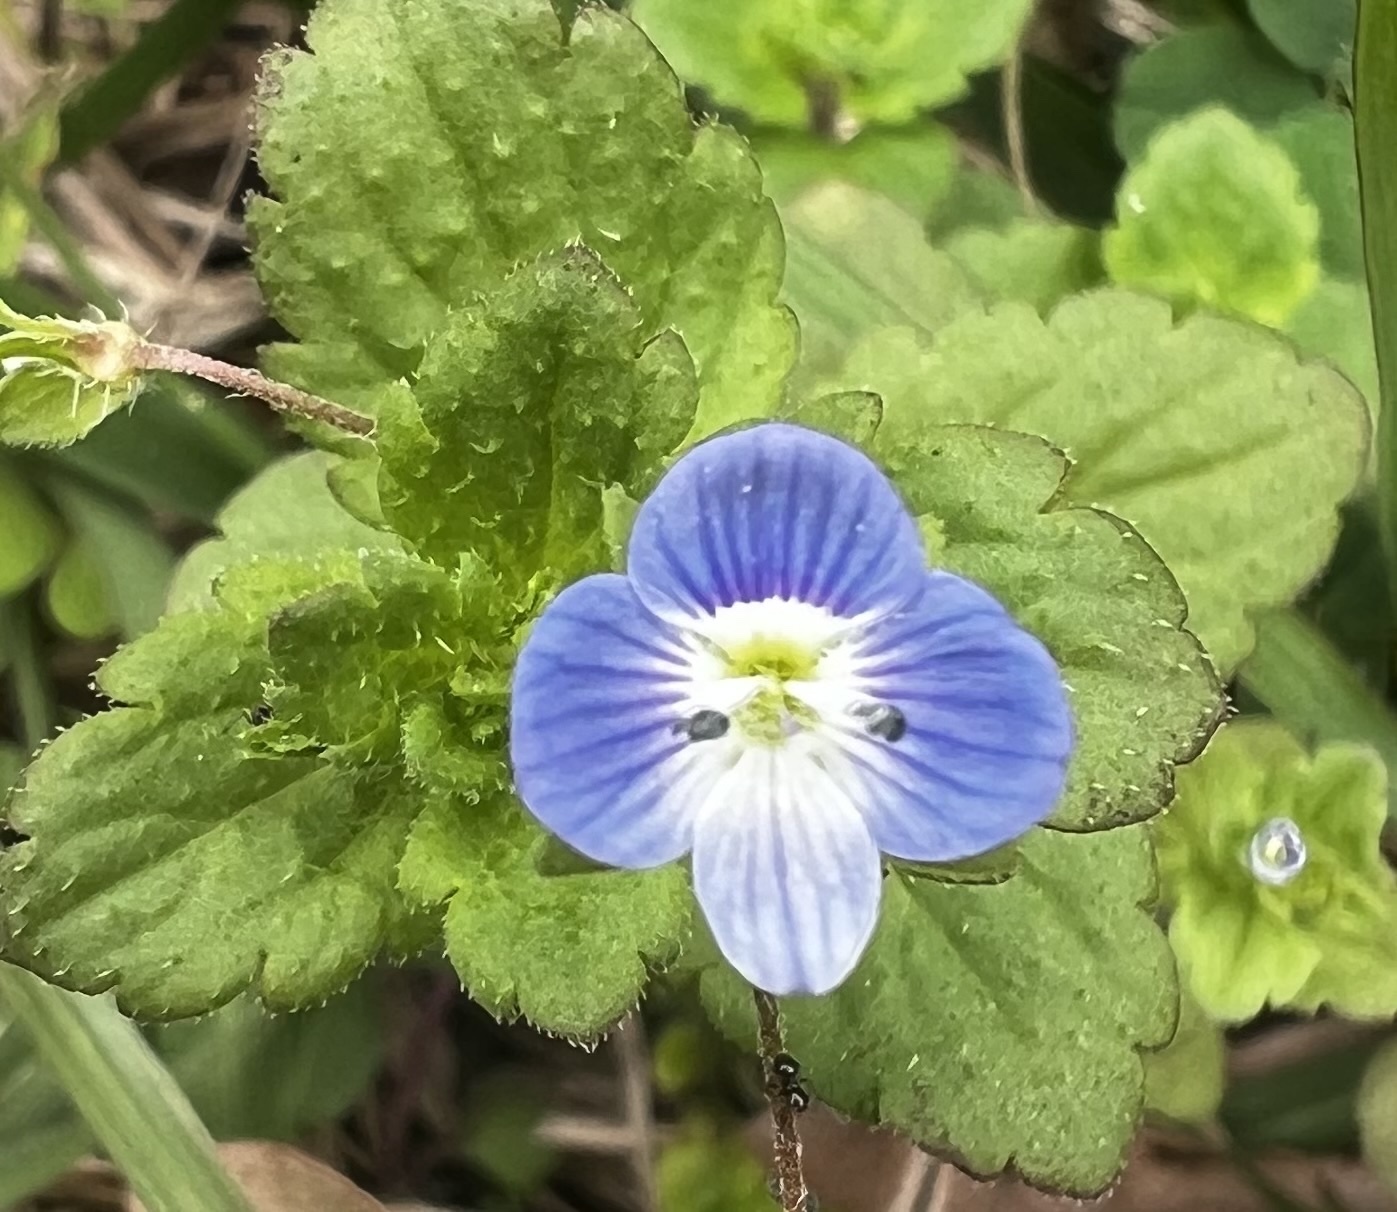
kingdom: Plantae
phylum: Tracheophyta
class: Magnoliopsida
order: Lamiales
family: Plantaginaceae
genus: Veronica
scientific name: Veronica persica
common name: Common field-speedwell
